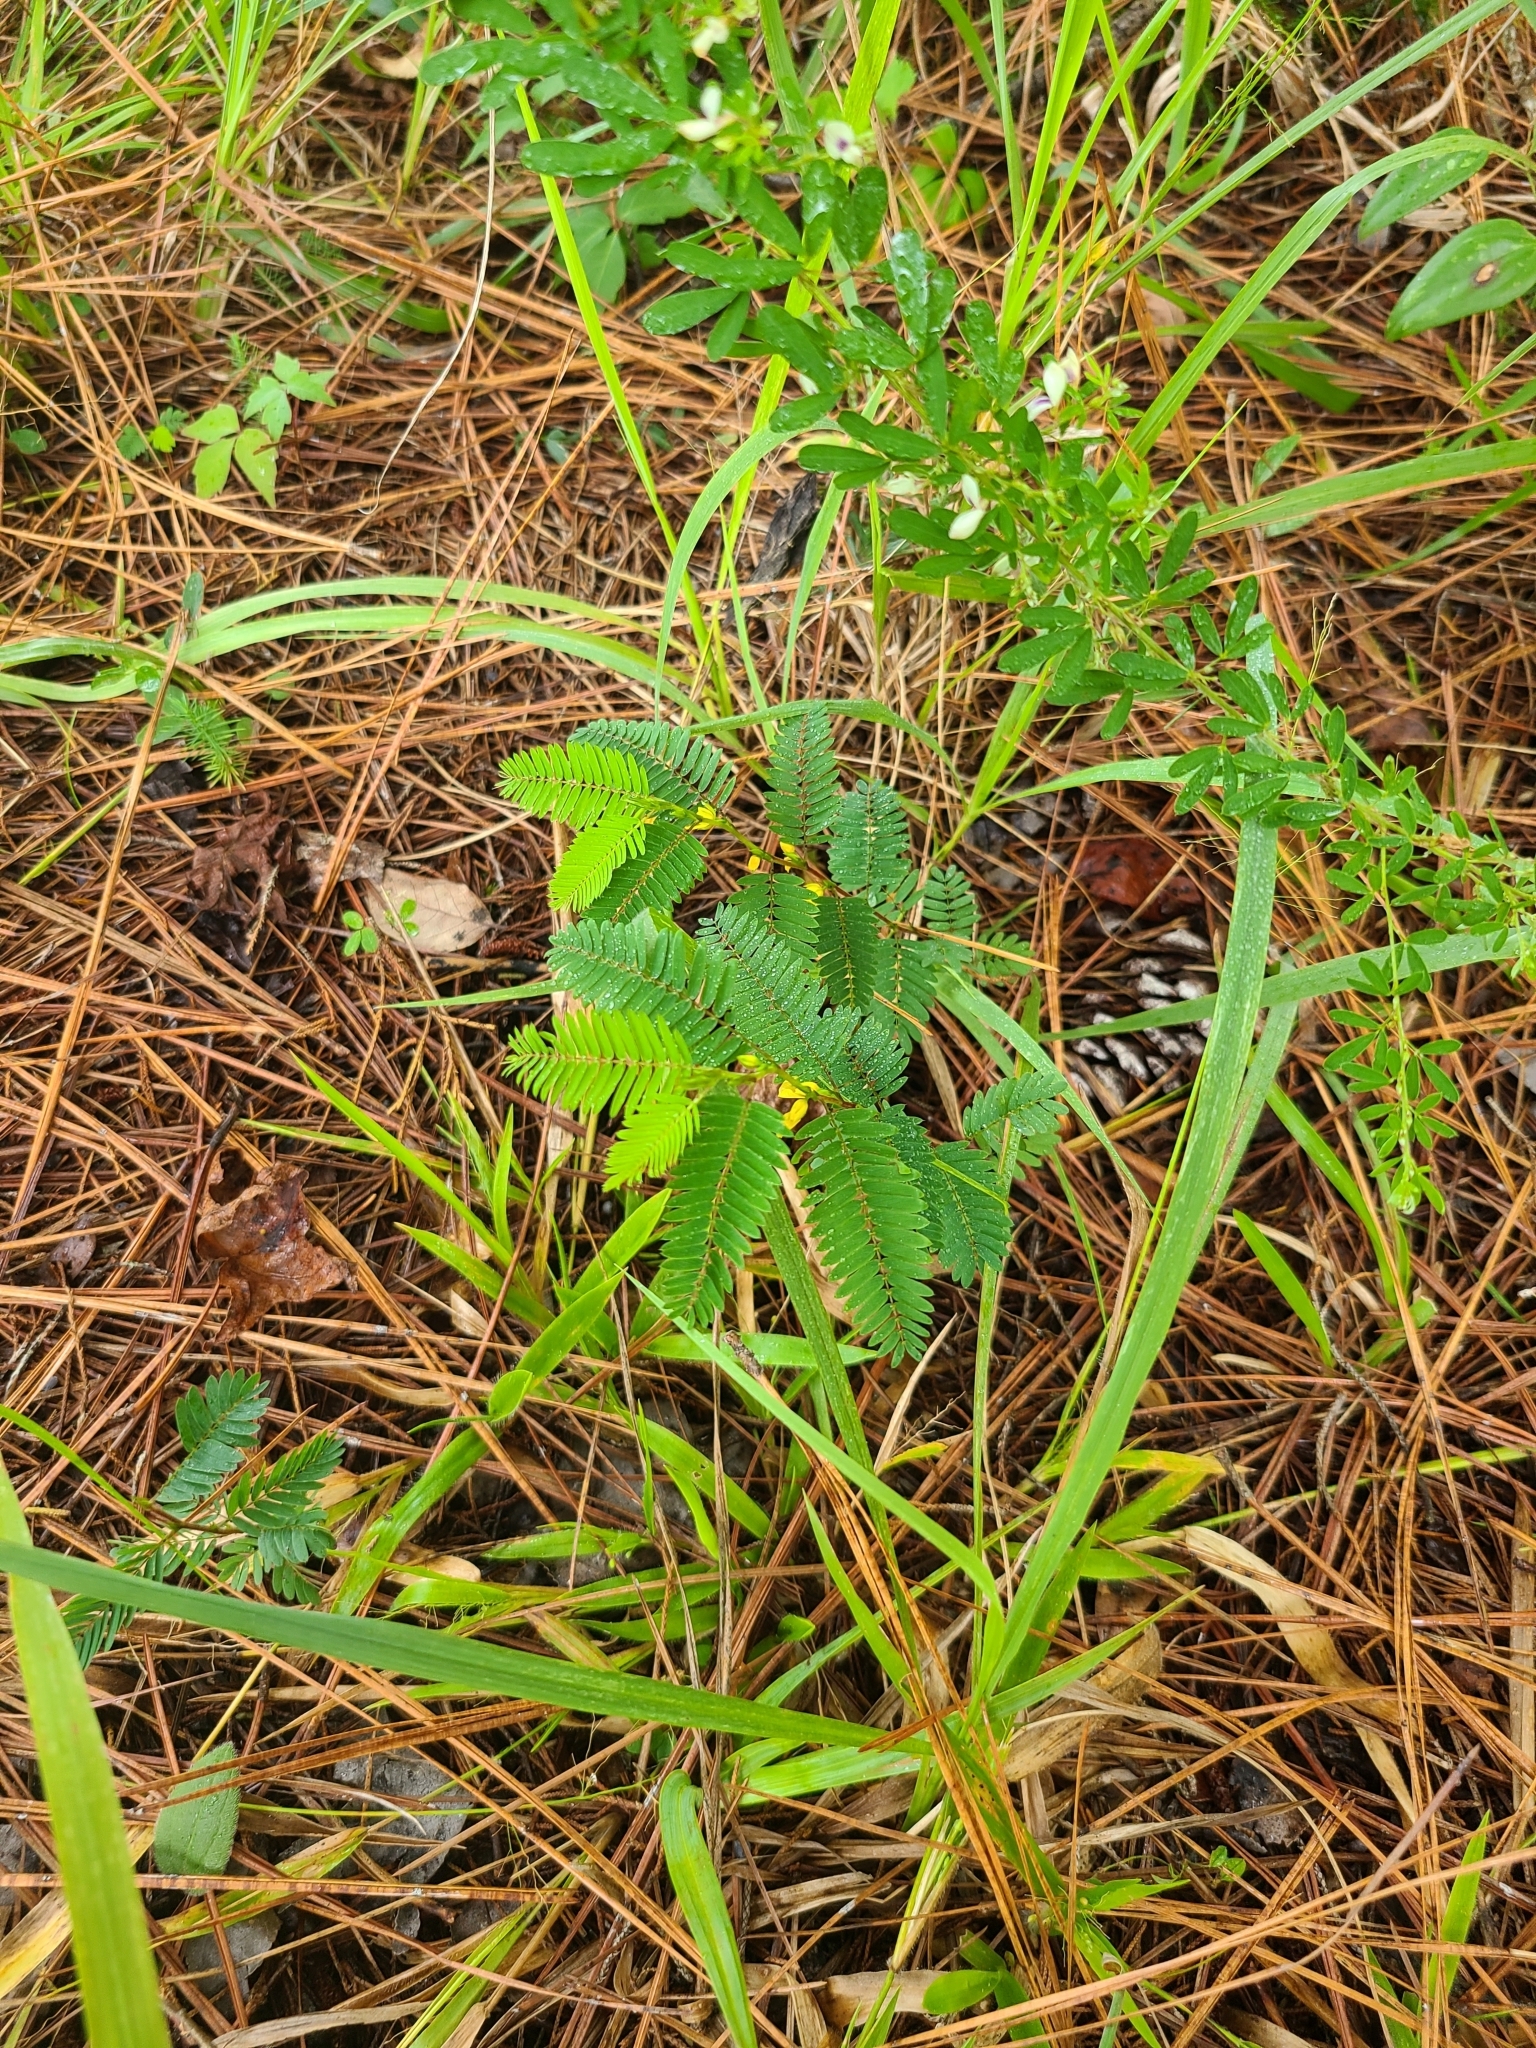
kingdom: Plantae
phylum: Tracheophyta
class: Magnoliopsida
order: Fabales
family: Fabaceae
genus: Chamaecrista
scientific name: Chamaecrista nictitans
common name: Sensitive cassia
